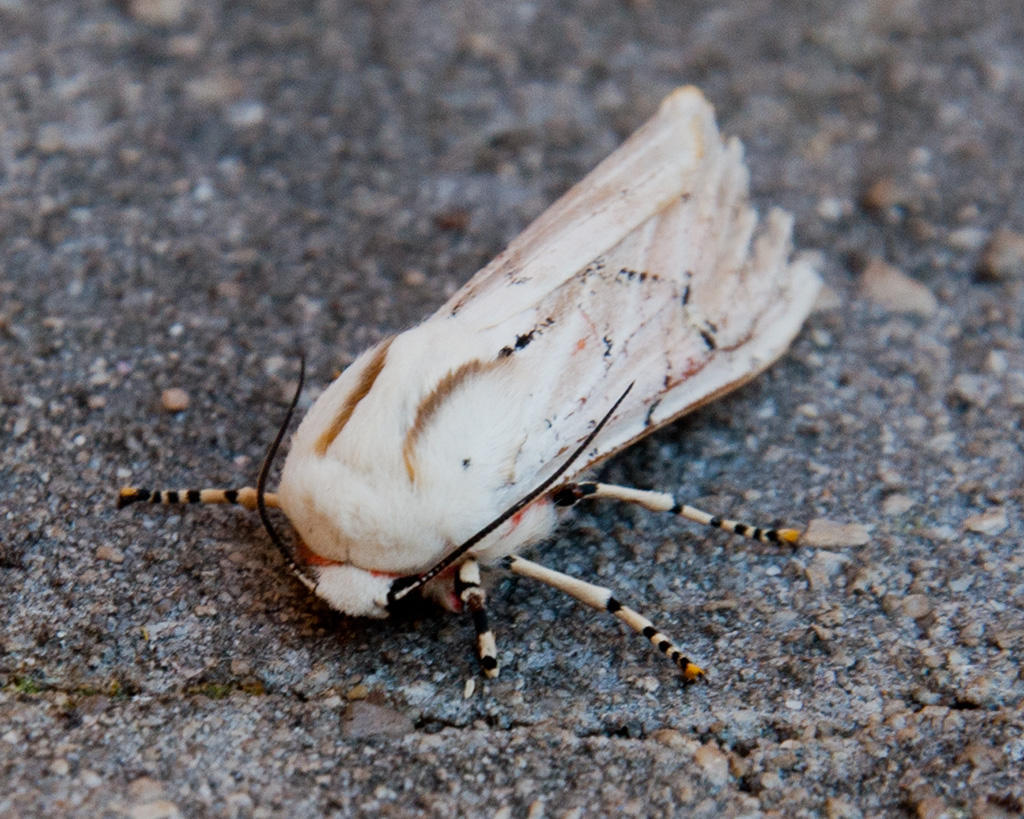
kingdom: Animalia
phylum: Arthropoda
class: Insecta
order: Lepidoptera
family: Erebidae
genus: Rhodogastria
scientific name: Rhodogastria amasis
